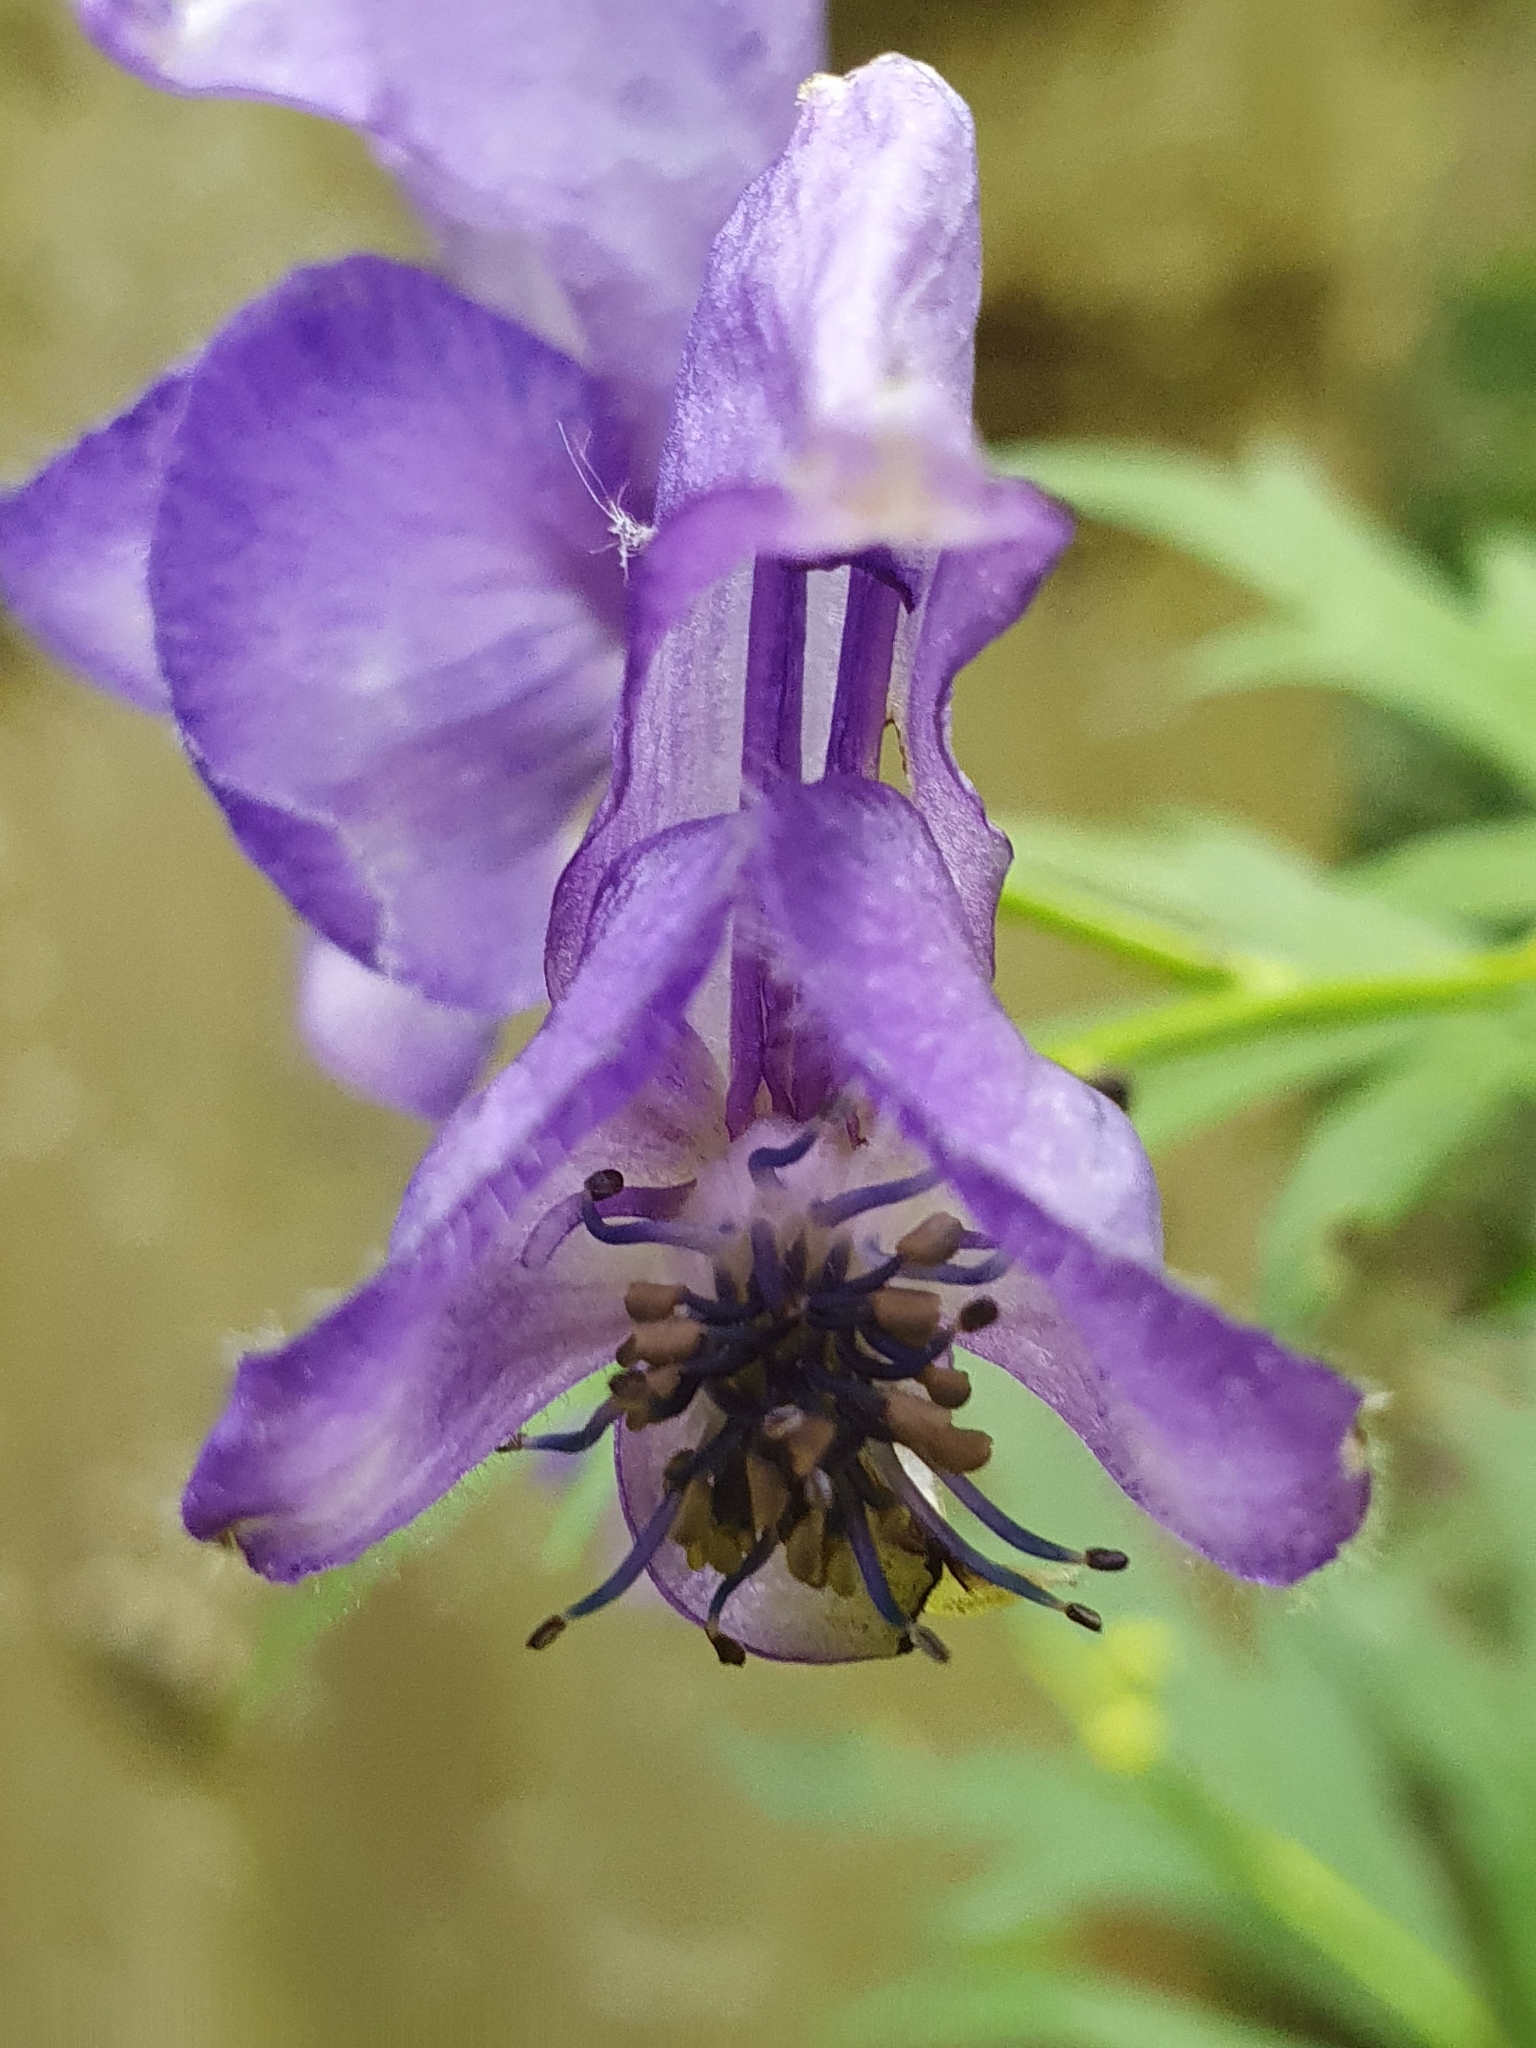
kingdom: Plantae
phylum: Tracheophyta
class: Magnoliopsida
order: Ranunculales
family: Ranunculaceae
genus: Aconitum
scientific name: Aconitum napellus
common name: Garden monkshood
